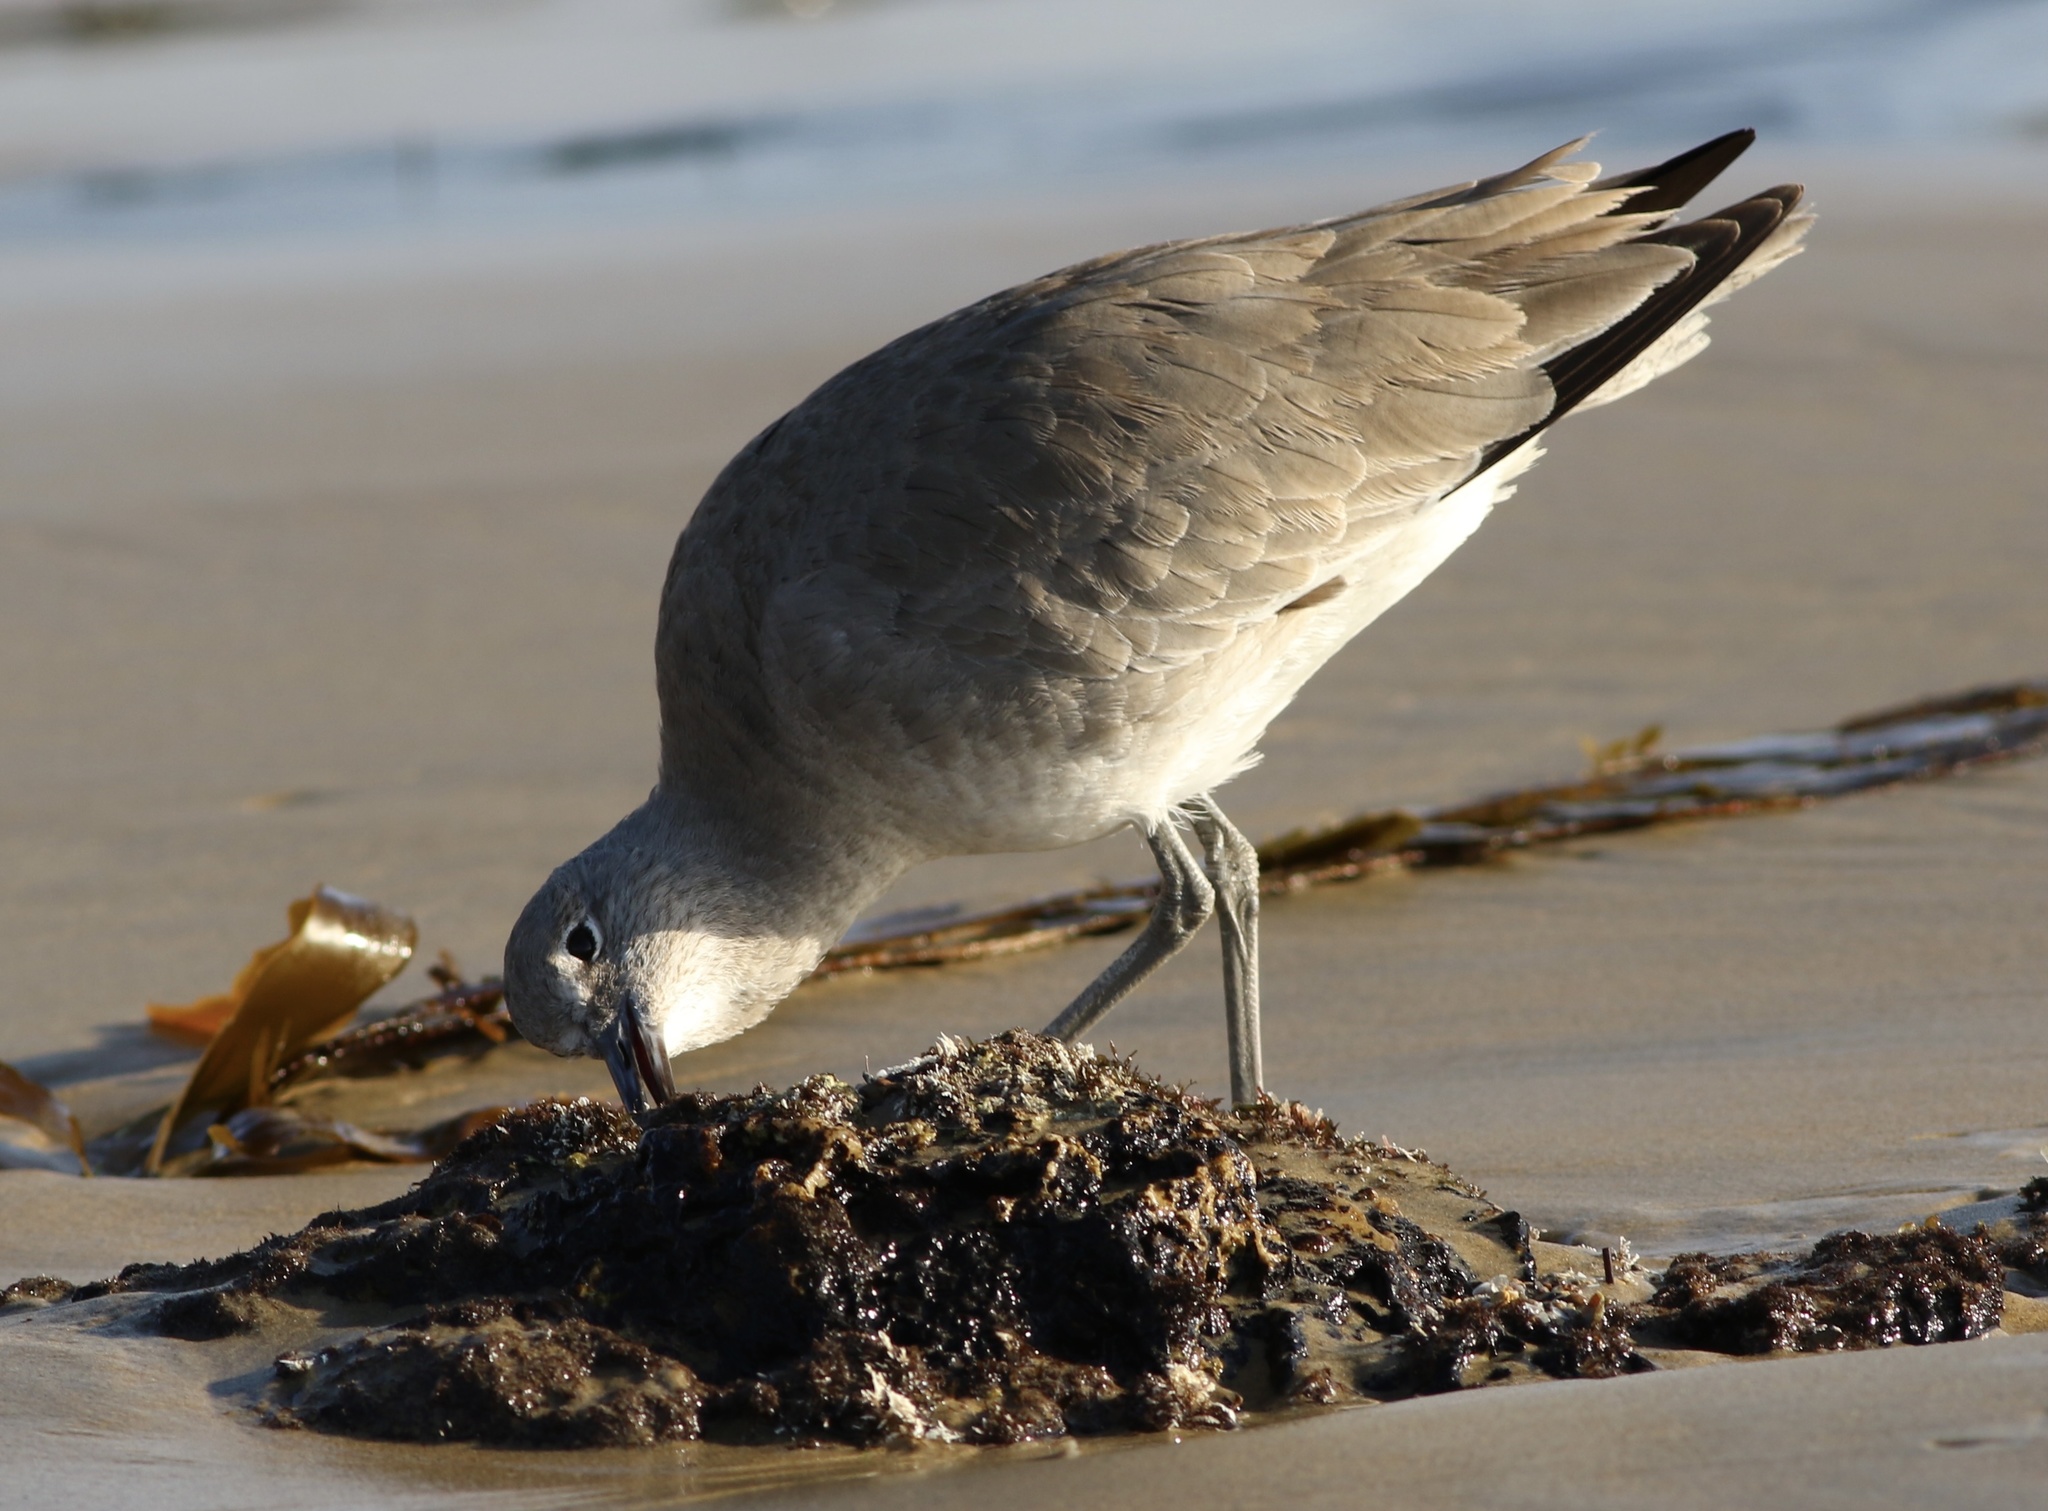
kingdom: Animalia
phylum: Chordata
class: Aves
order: Charadriiformes
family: Scolopacidae
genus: Tringa
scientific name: Tringa semipalmata
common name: Willet
